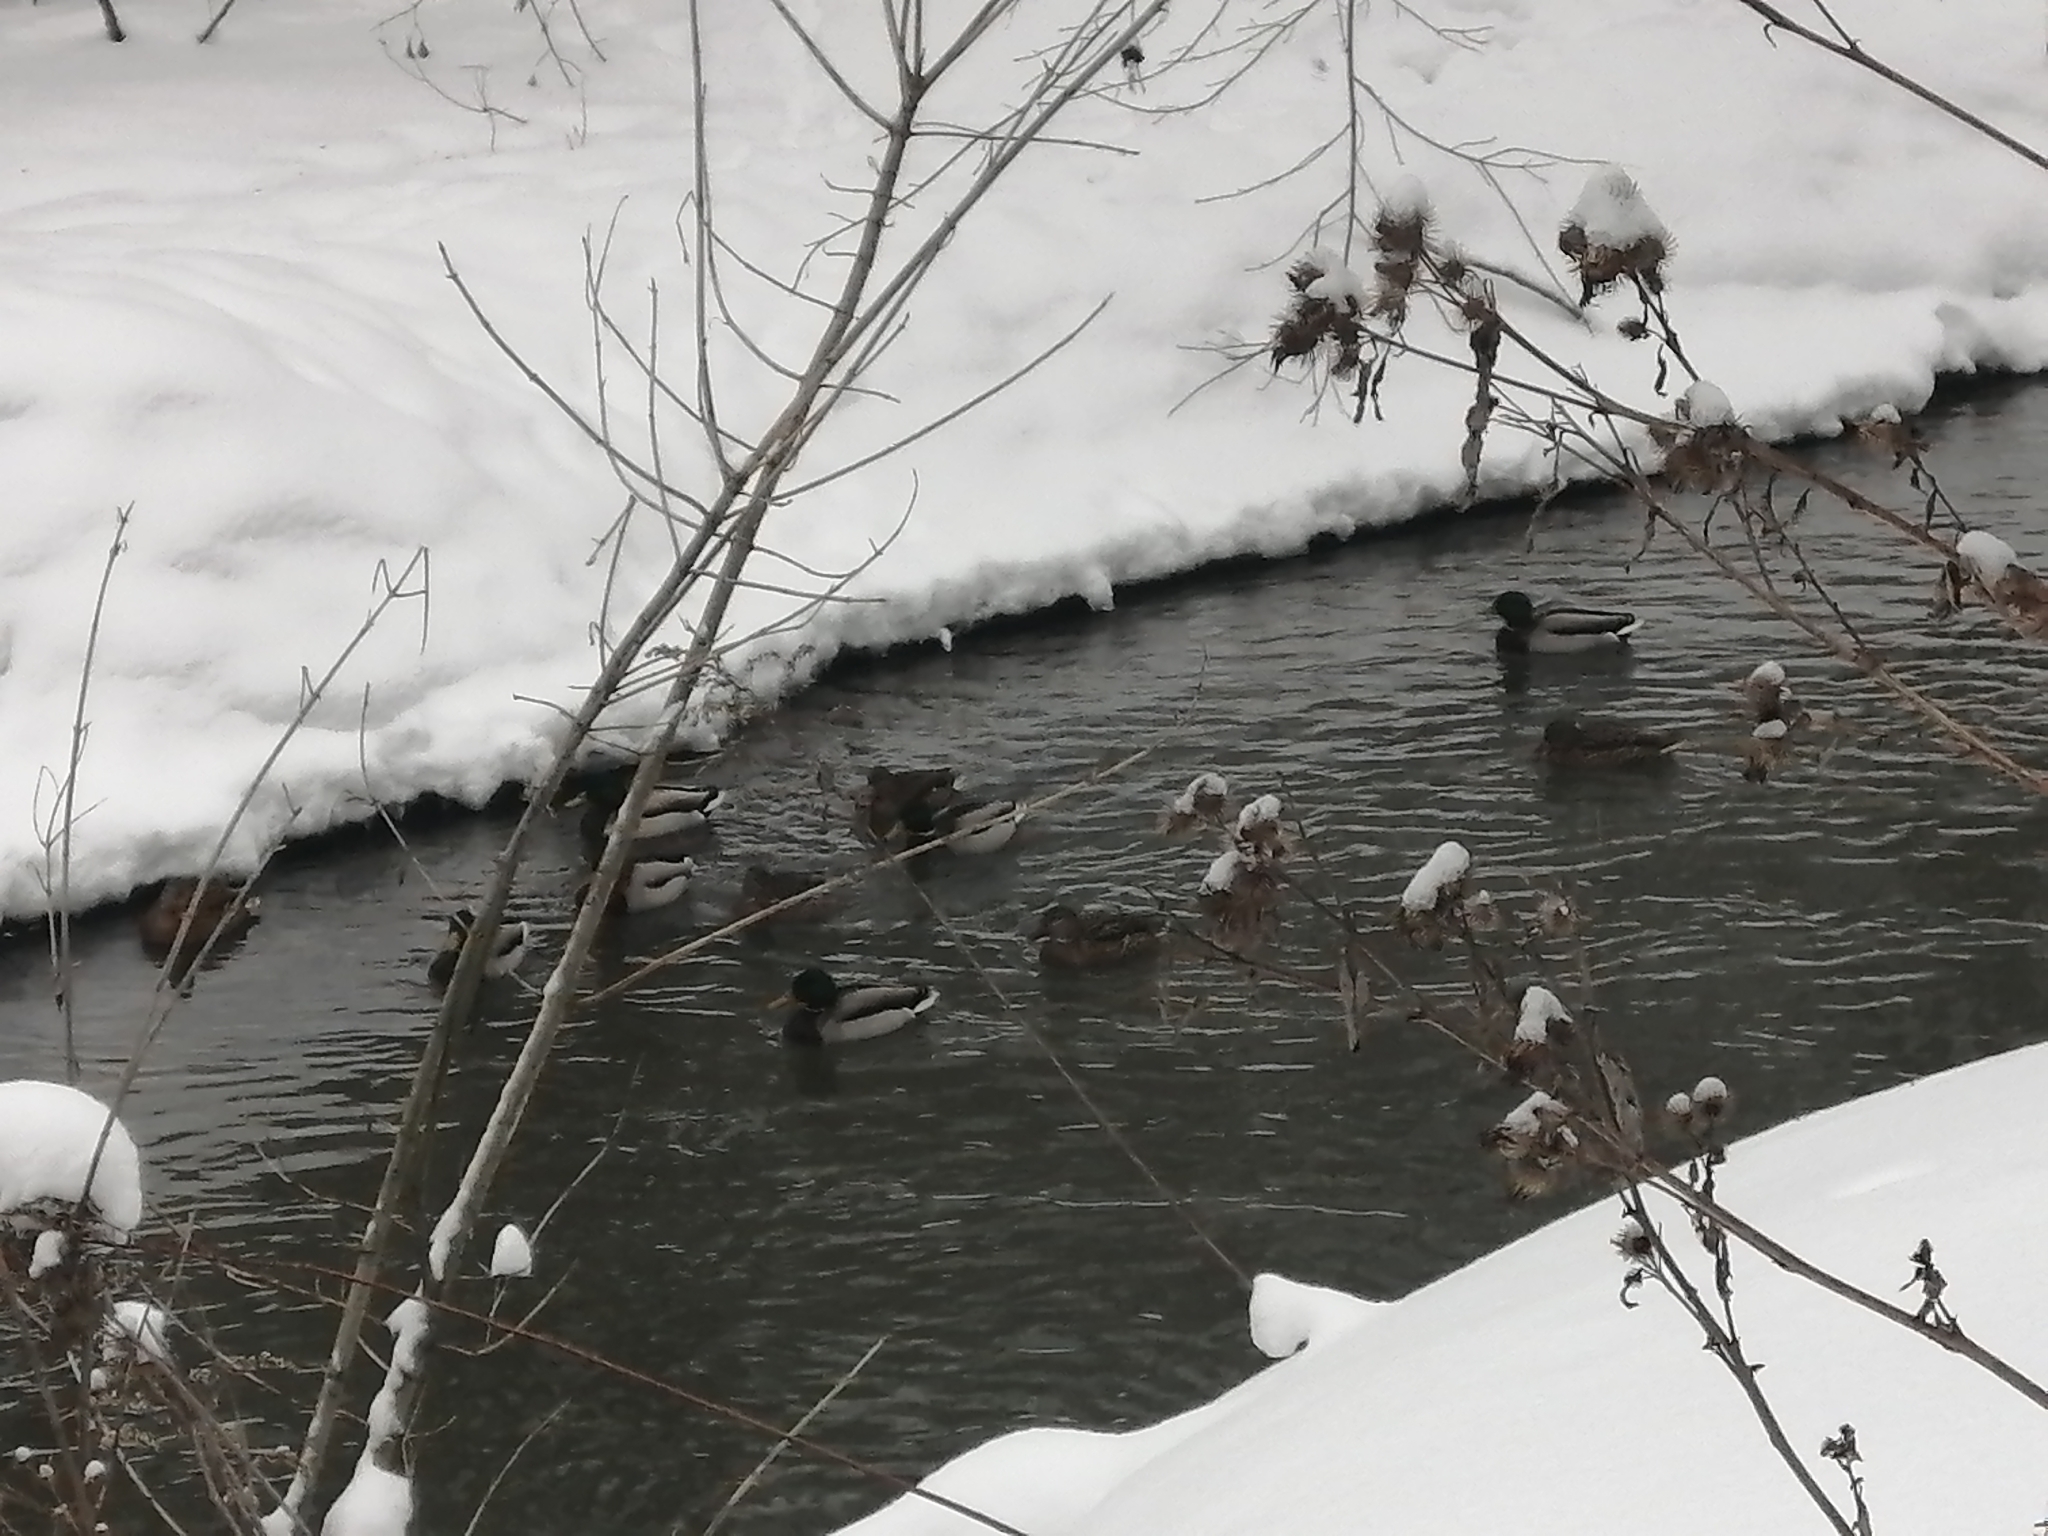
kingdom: Animalia
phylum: Chordata
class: Aves
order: Anseriformes
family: Anatidae
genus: Anas
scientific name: Anas platyrhynchos
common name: Mallard
